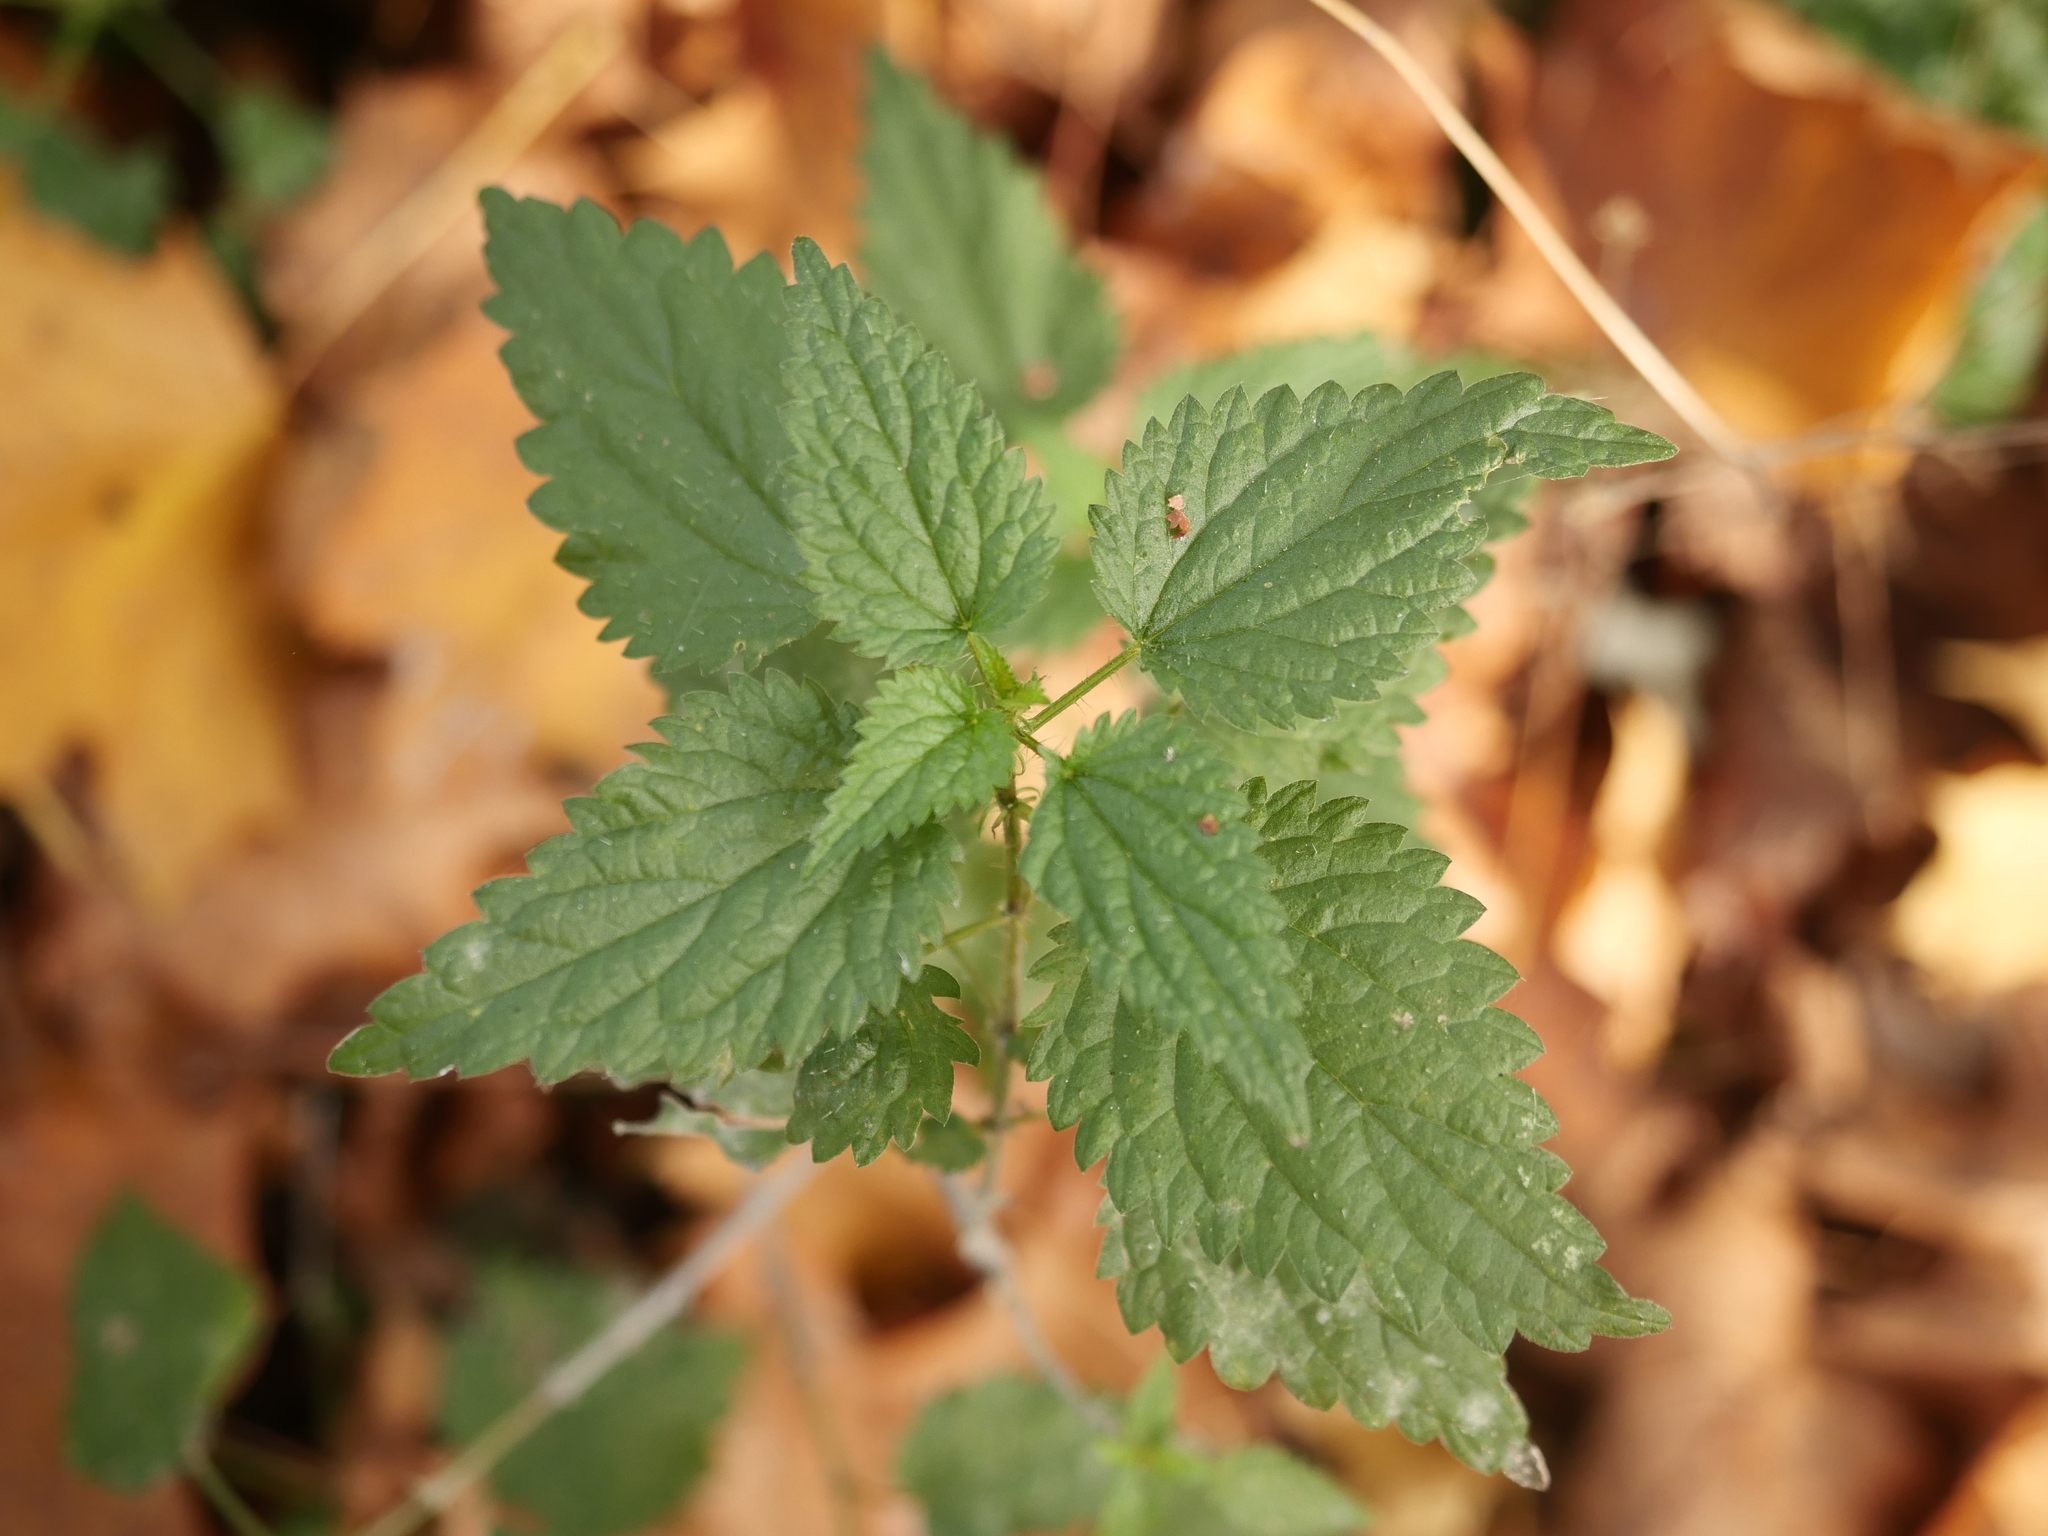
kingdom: Plantae
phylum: Tracheophyta
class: Magnoliopsida
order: Rosales
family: Urticaceae
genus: Urtica
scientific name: Urtica dioica
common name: Common nettle
